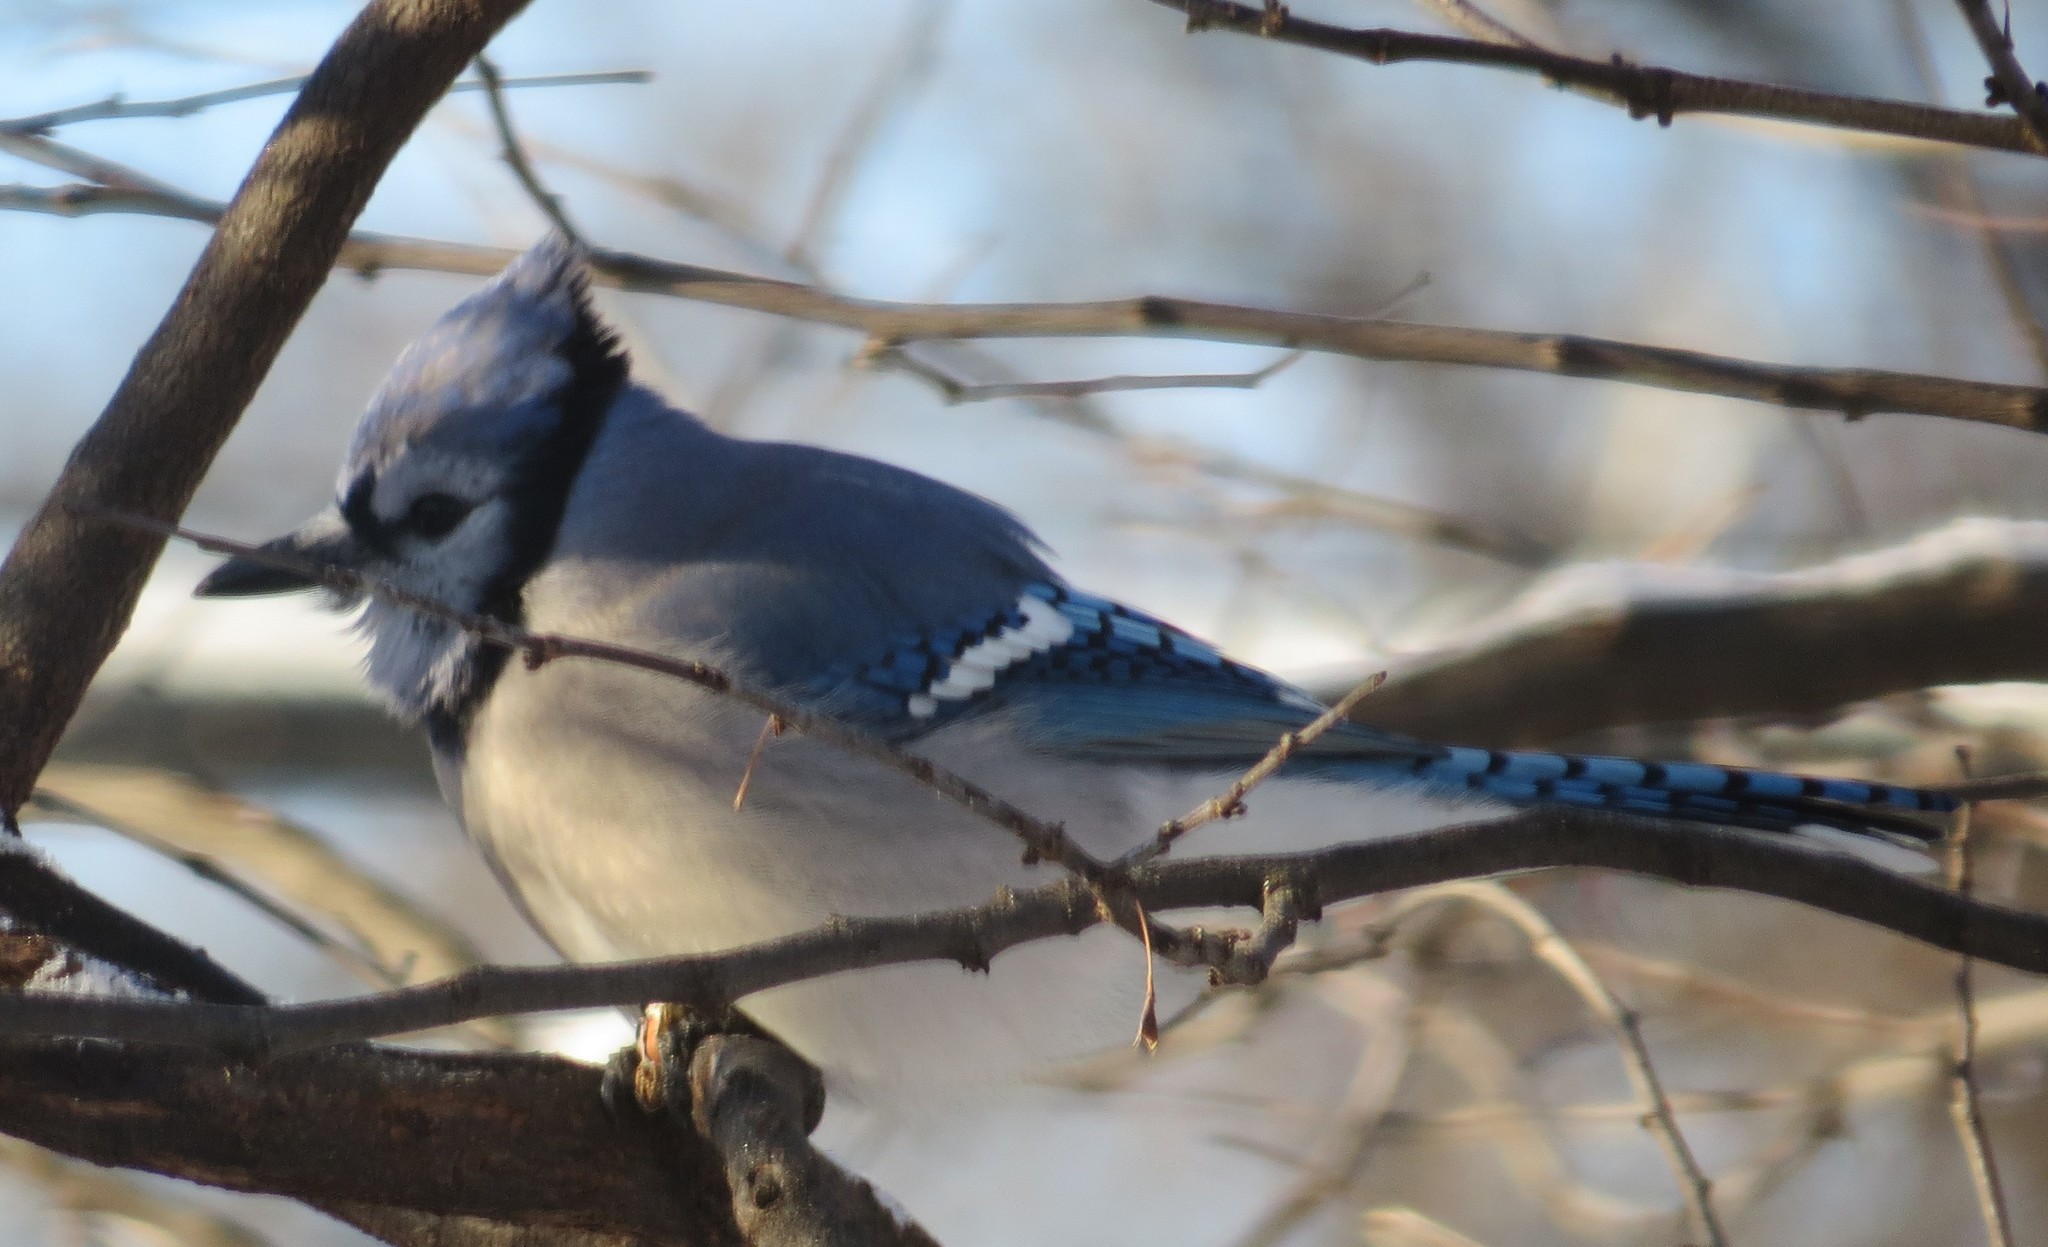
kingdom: Animalia
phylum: Chordata
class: Aves
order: Passeriformes
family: Corvidae
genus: Cyanocitta
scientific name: Cyanocitta cristata
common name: Blue jay
